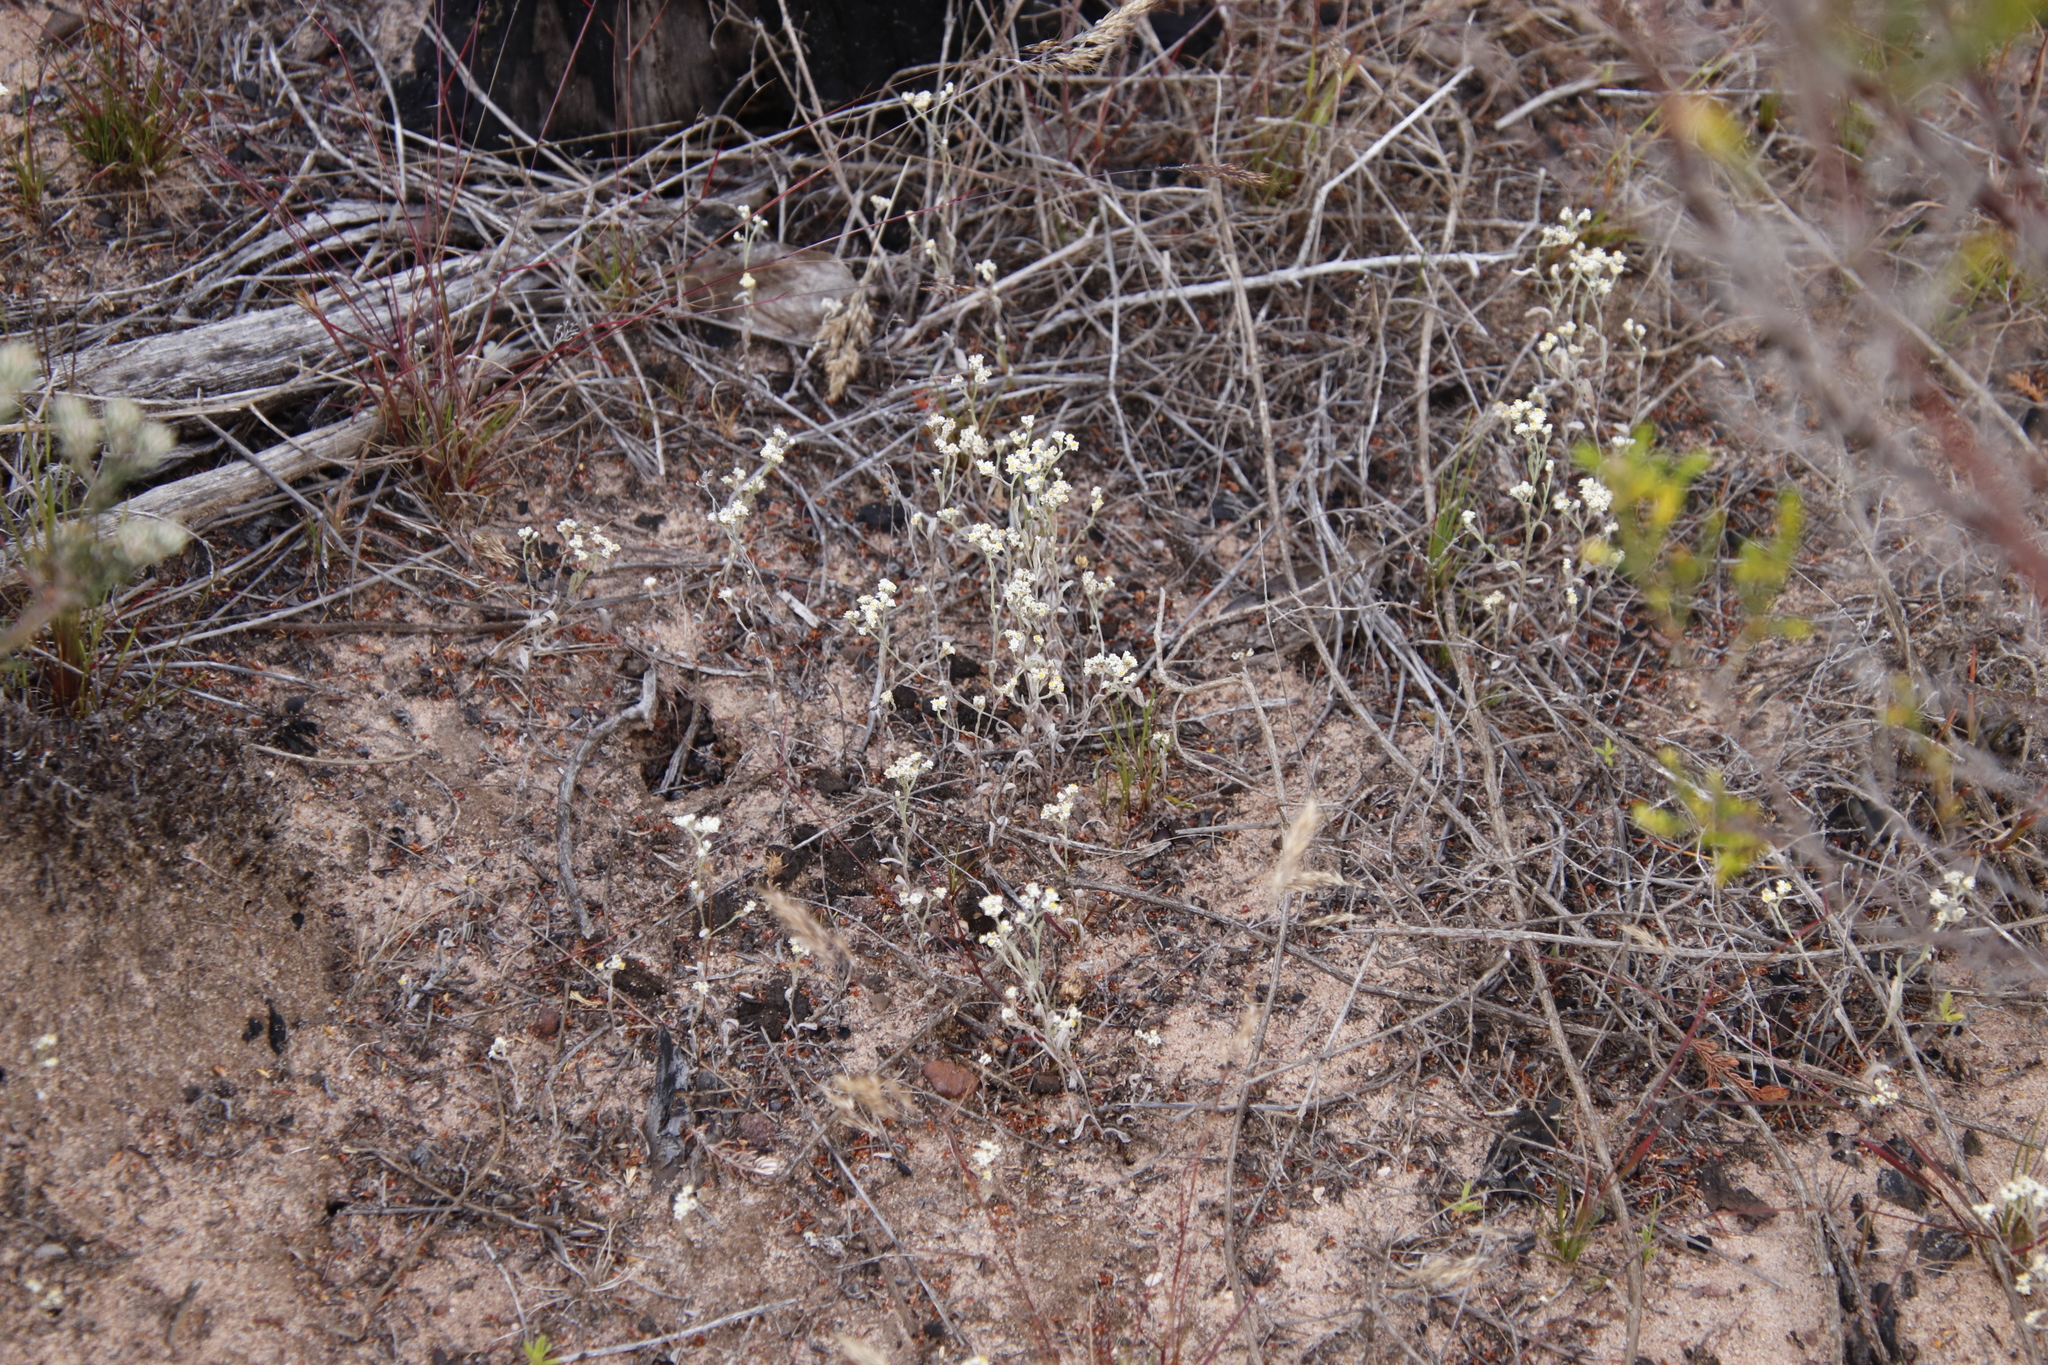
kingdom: Plantae
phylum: Tracheophyta
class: Magnoliopsida
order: Asterales
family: Asteraceae
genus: Helichrysum
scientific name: Helichrysum indicum
